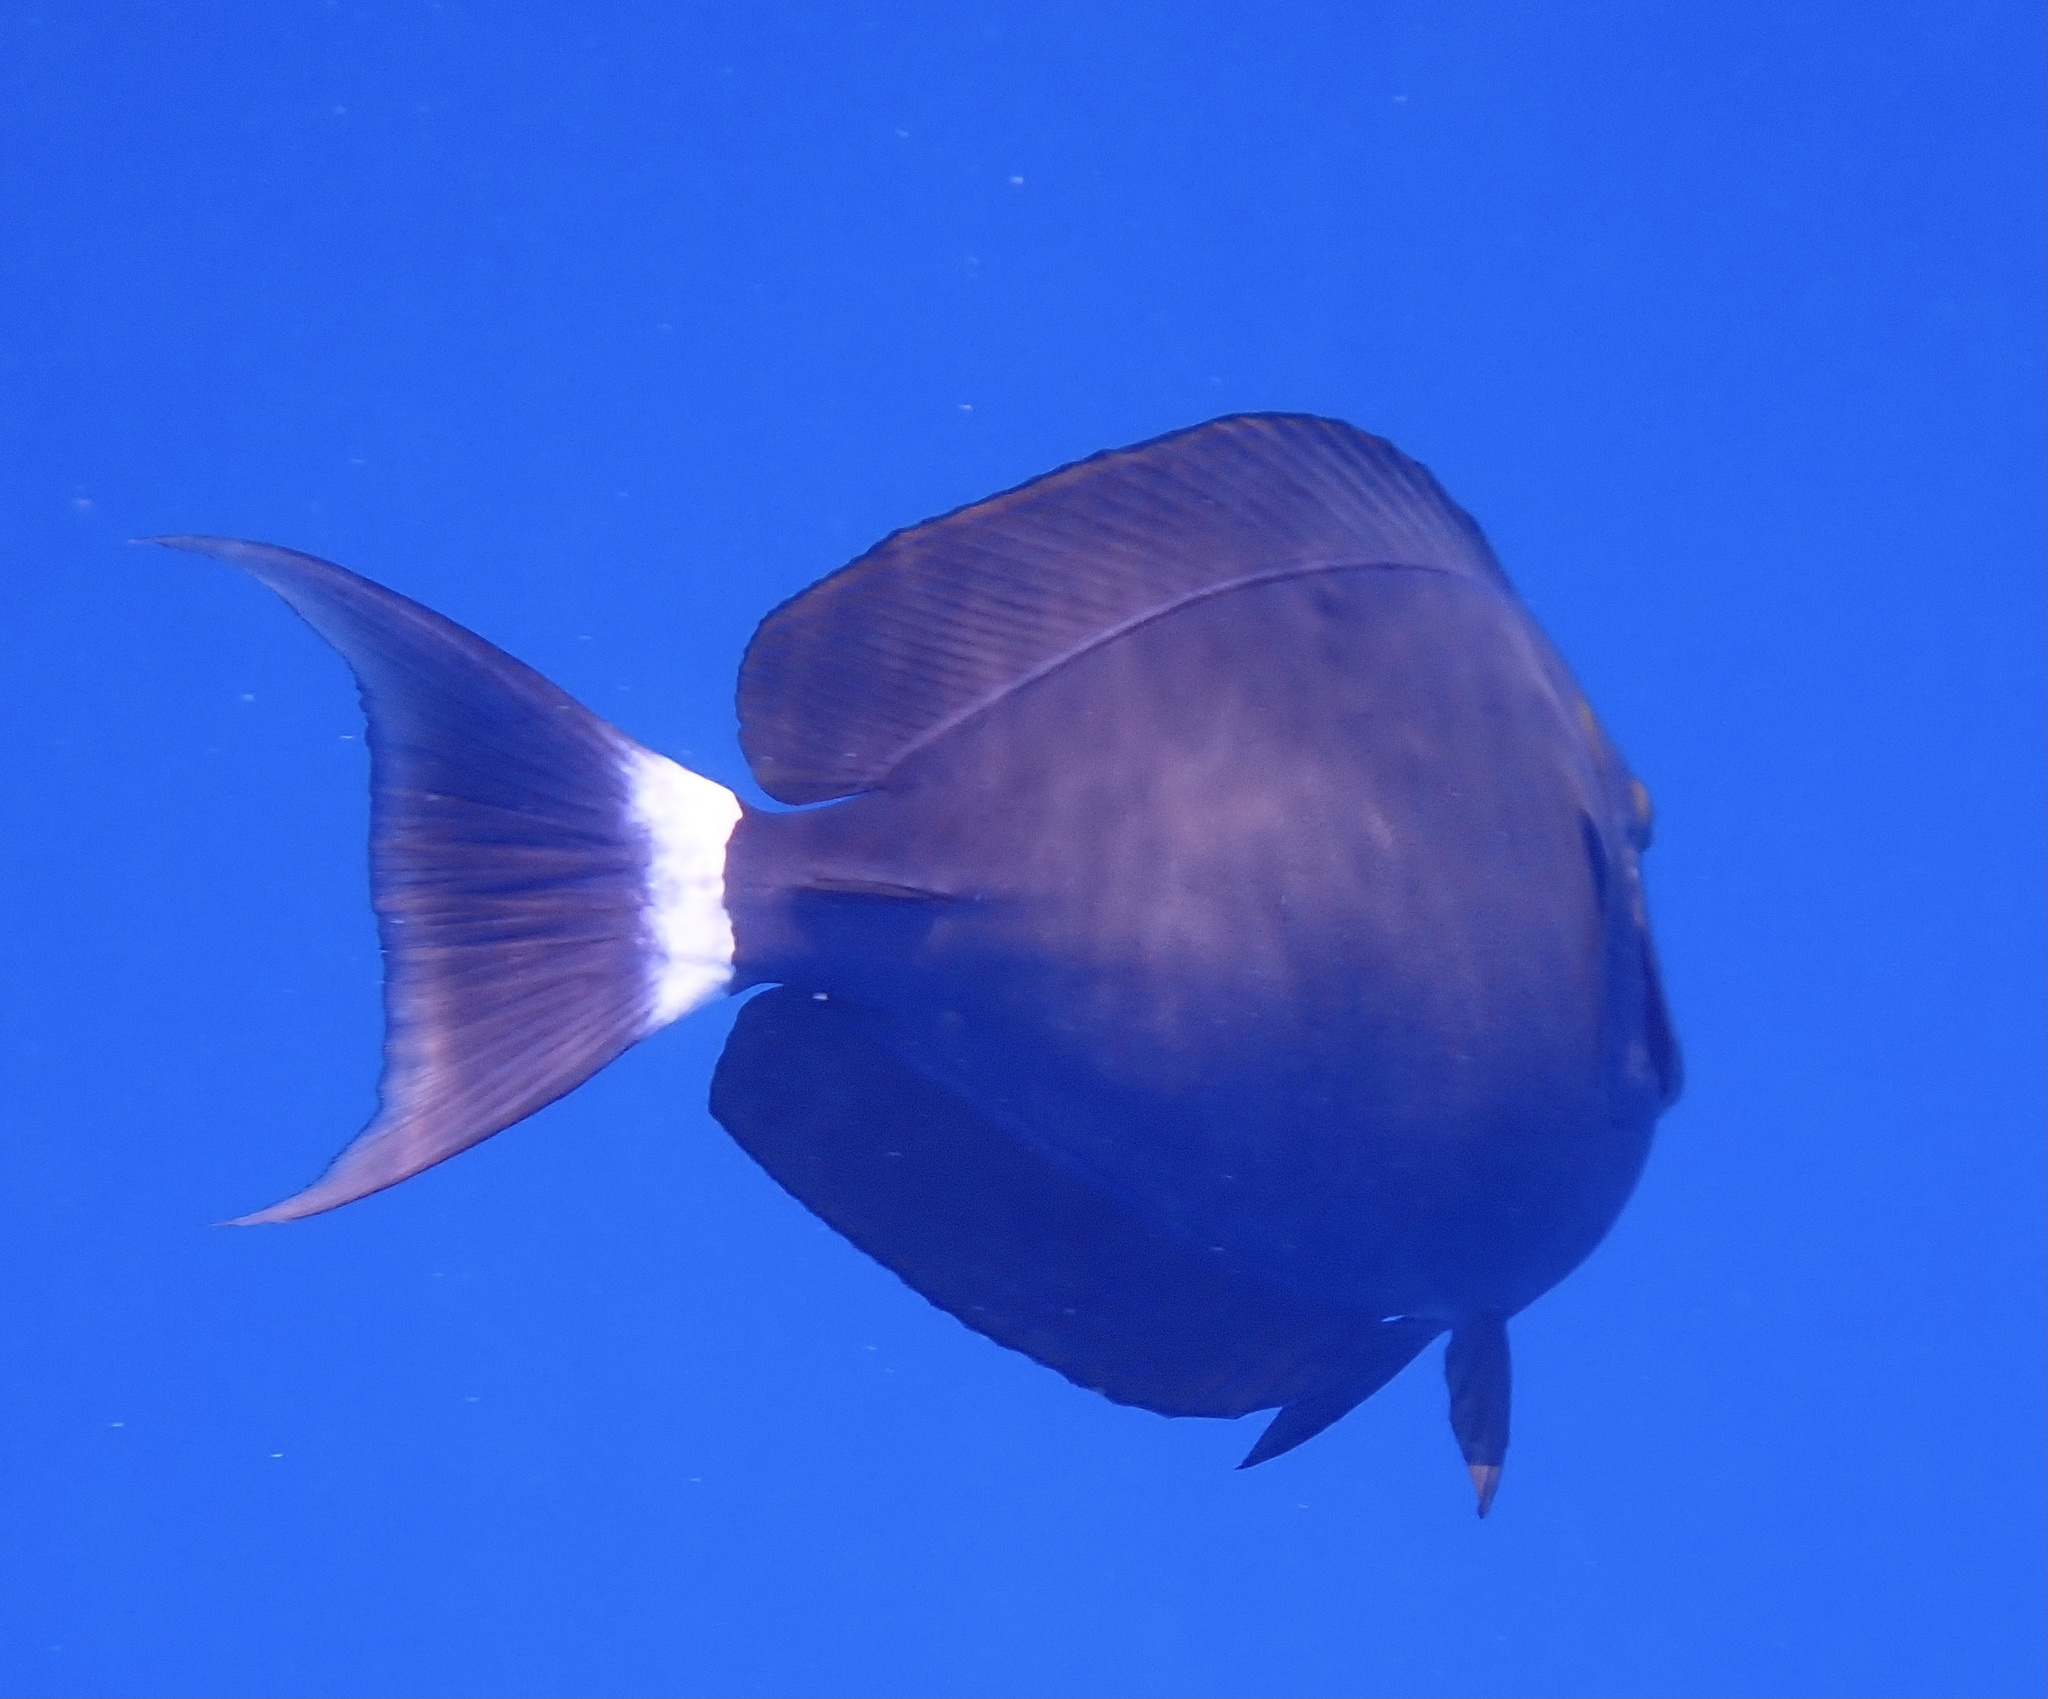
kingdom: Animalia
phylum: Chordata
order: Perciformes
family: Acanthuridae
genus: Acanthurus
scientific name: Acanthurus gahhm
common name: Black surgeonfish
